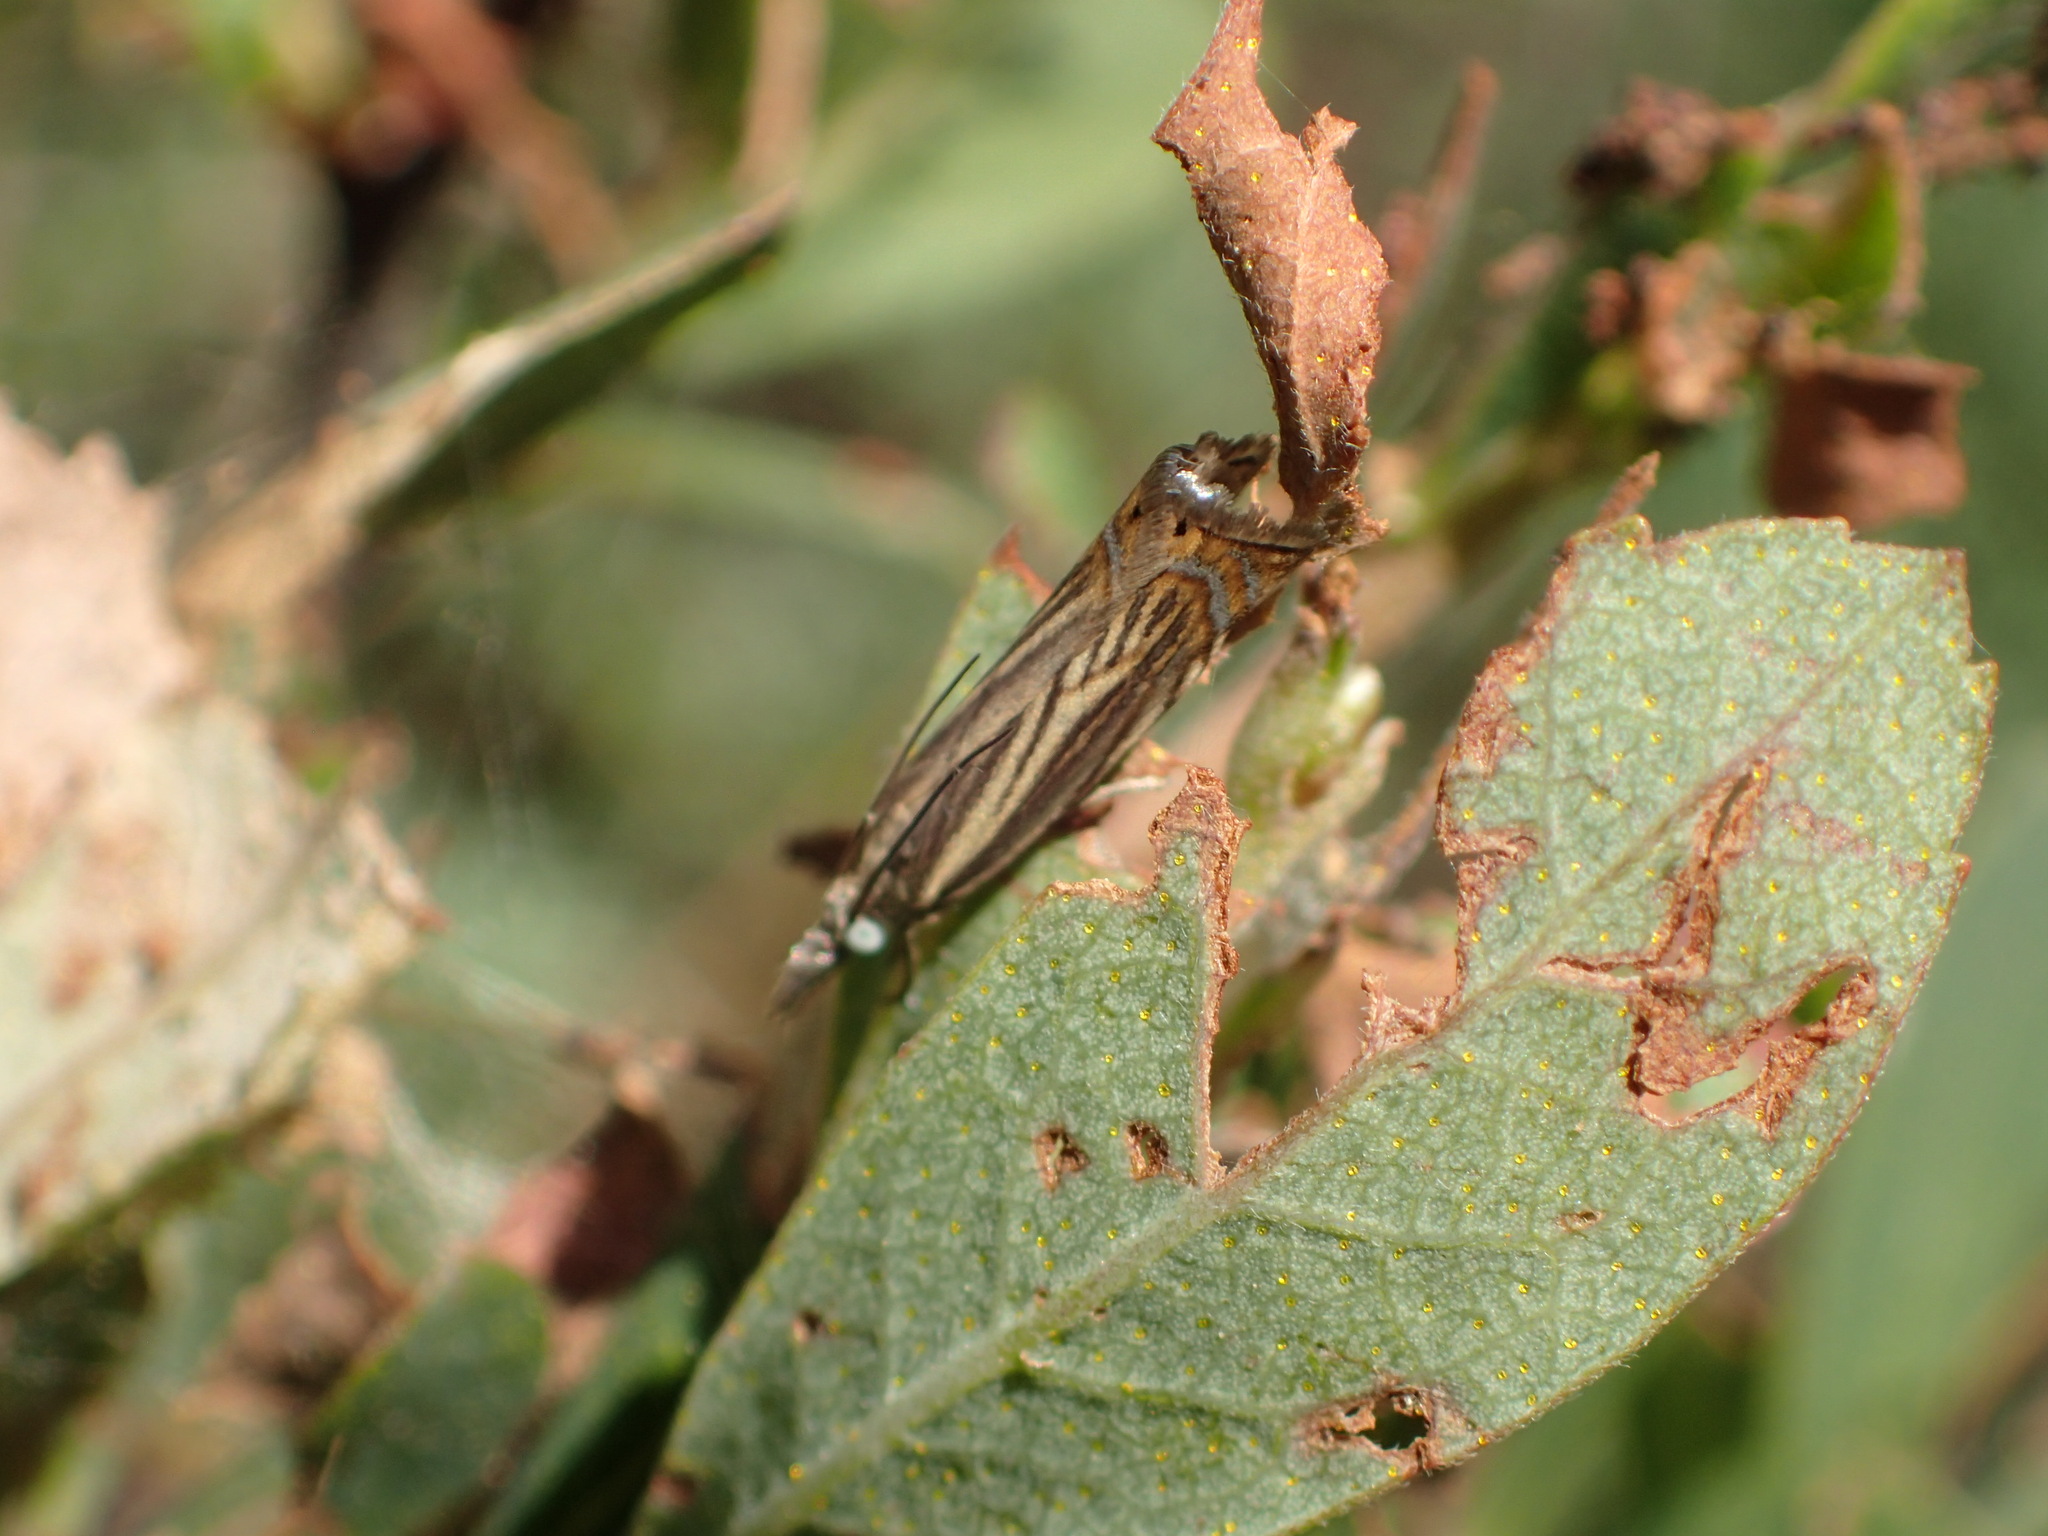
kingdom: Animalia
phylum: Arthropoda
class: Insecta
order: Lepidoptera
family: Crambidae
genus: Chrysoteuchia
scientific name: Chrysoteuchia topiarius
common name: Topiary grass-veneer
